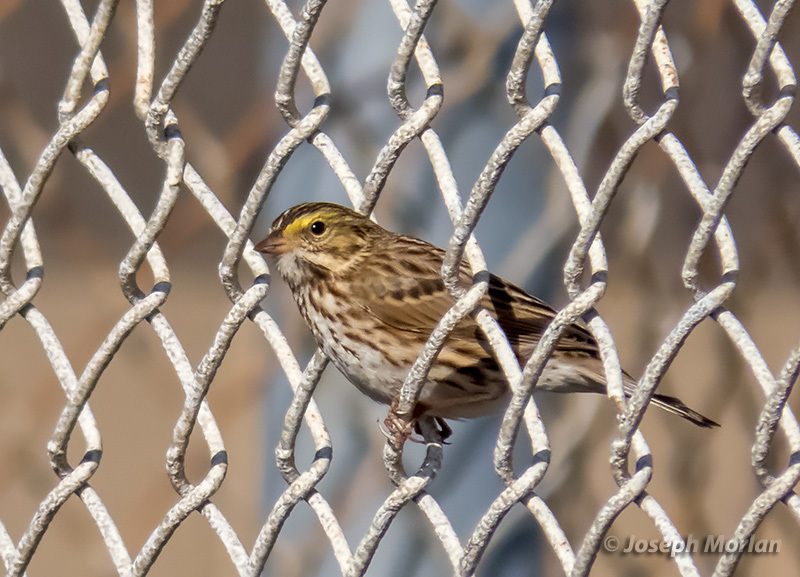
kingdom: Animalia
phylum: Chordata
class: Aves
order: Passeriformes
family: Passerellidae
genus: Passerculus
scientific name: Passerculus sandwichensis
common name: Savannah sparrow
